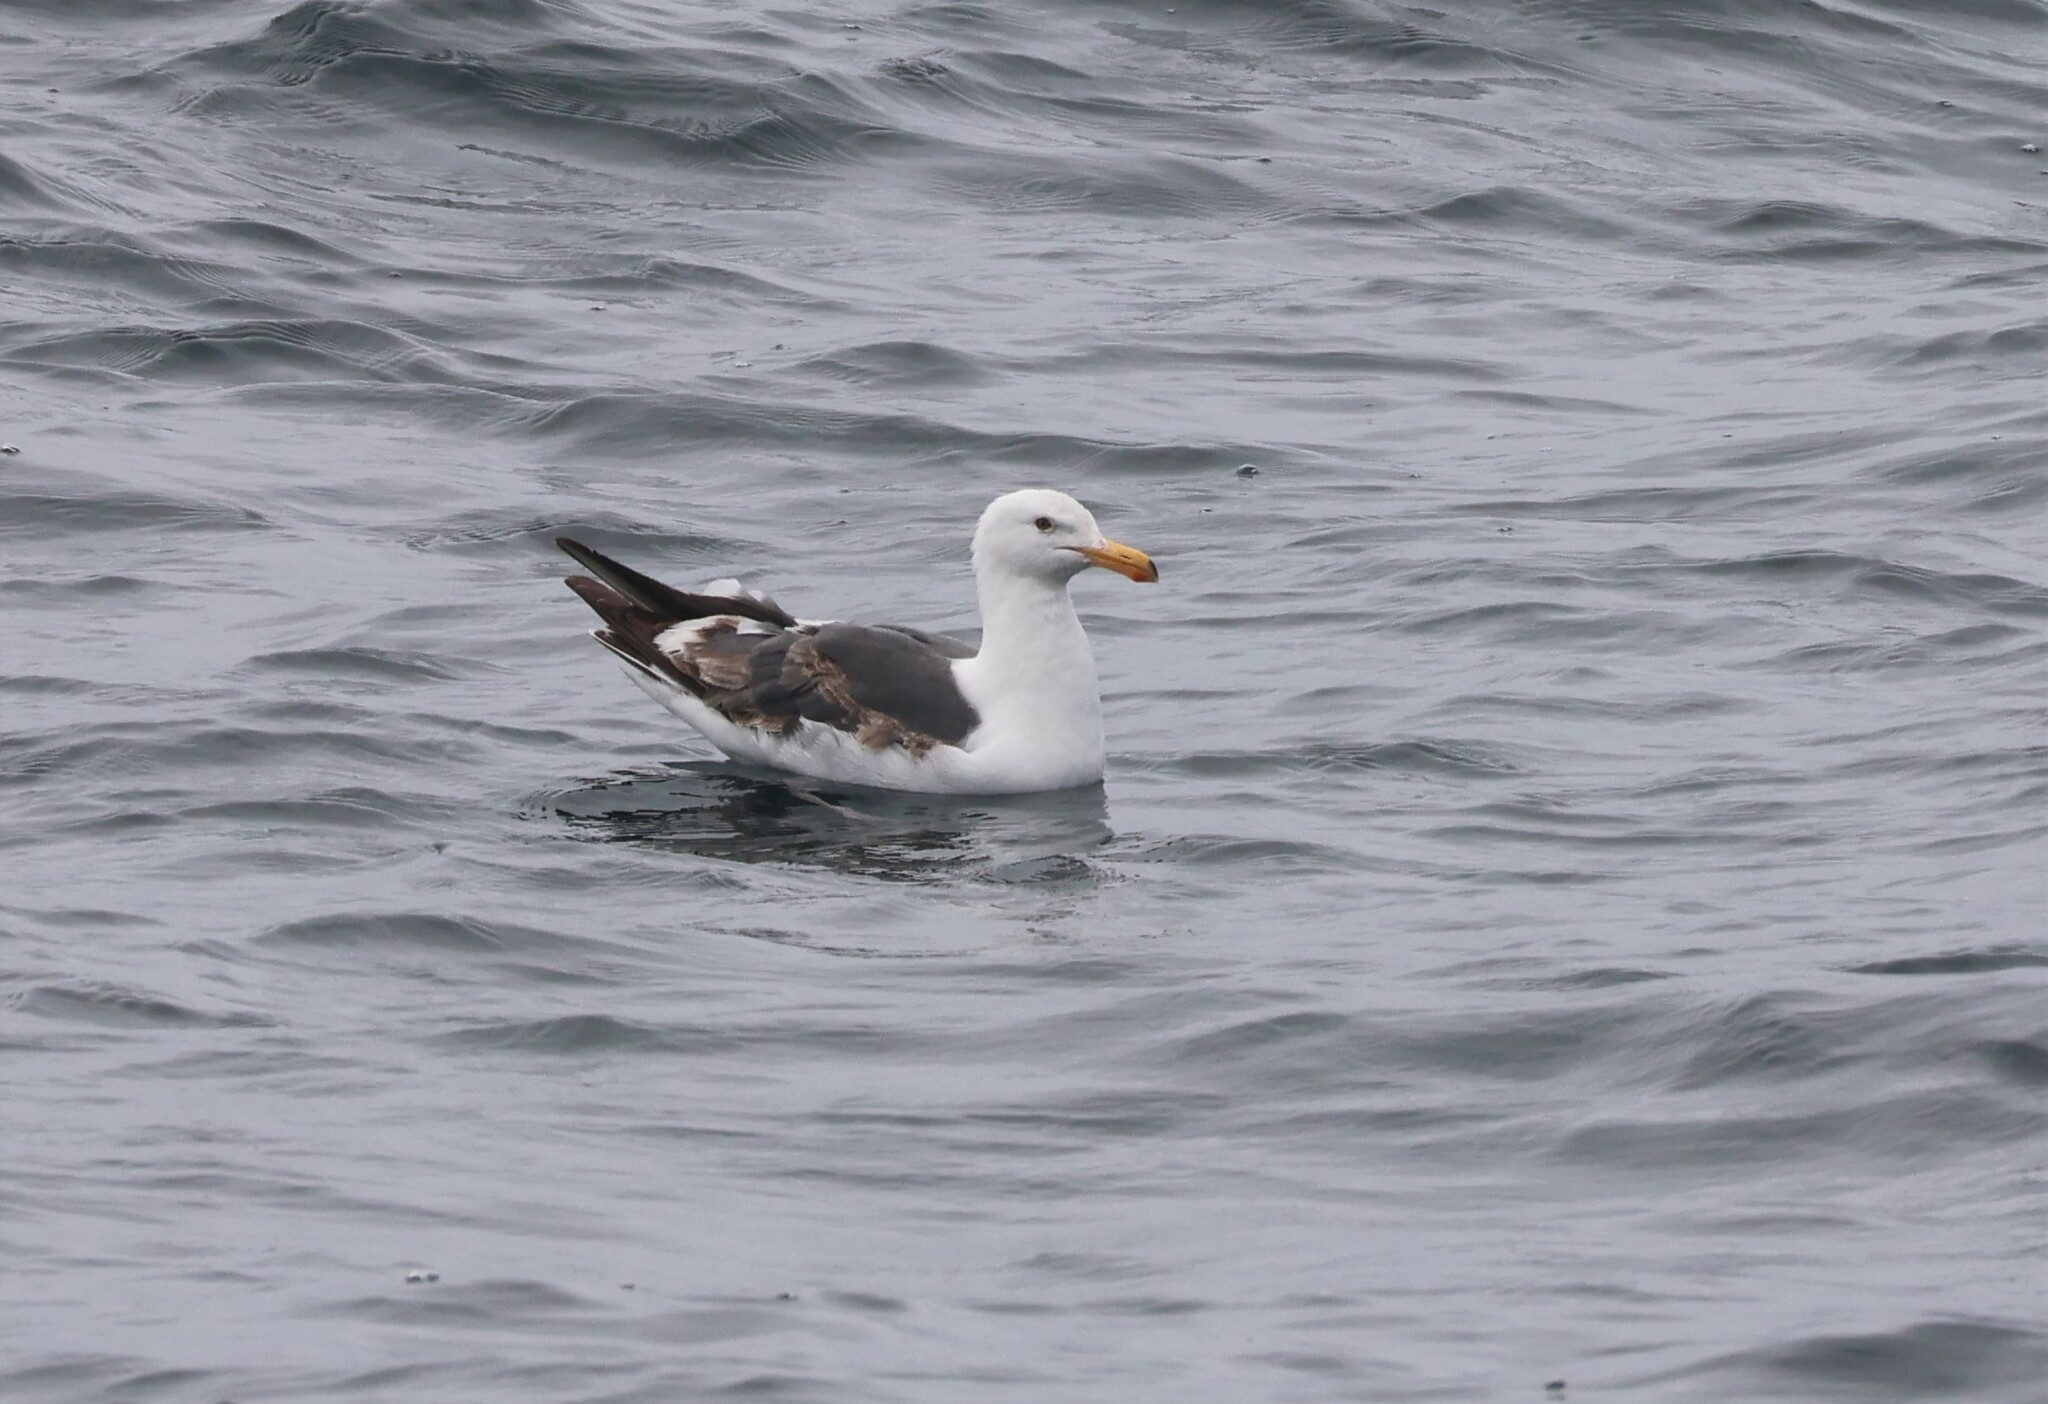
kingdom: Animalia
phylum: Chordata
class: Aves
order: Charadriiformes
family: Laridae
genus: Larus
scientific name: Larus occidentalis
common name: Western gull
